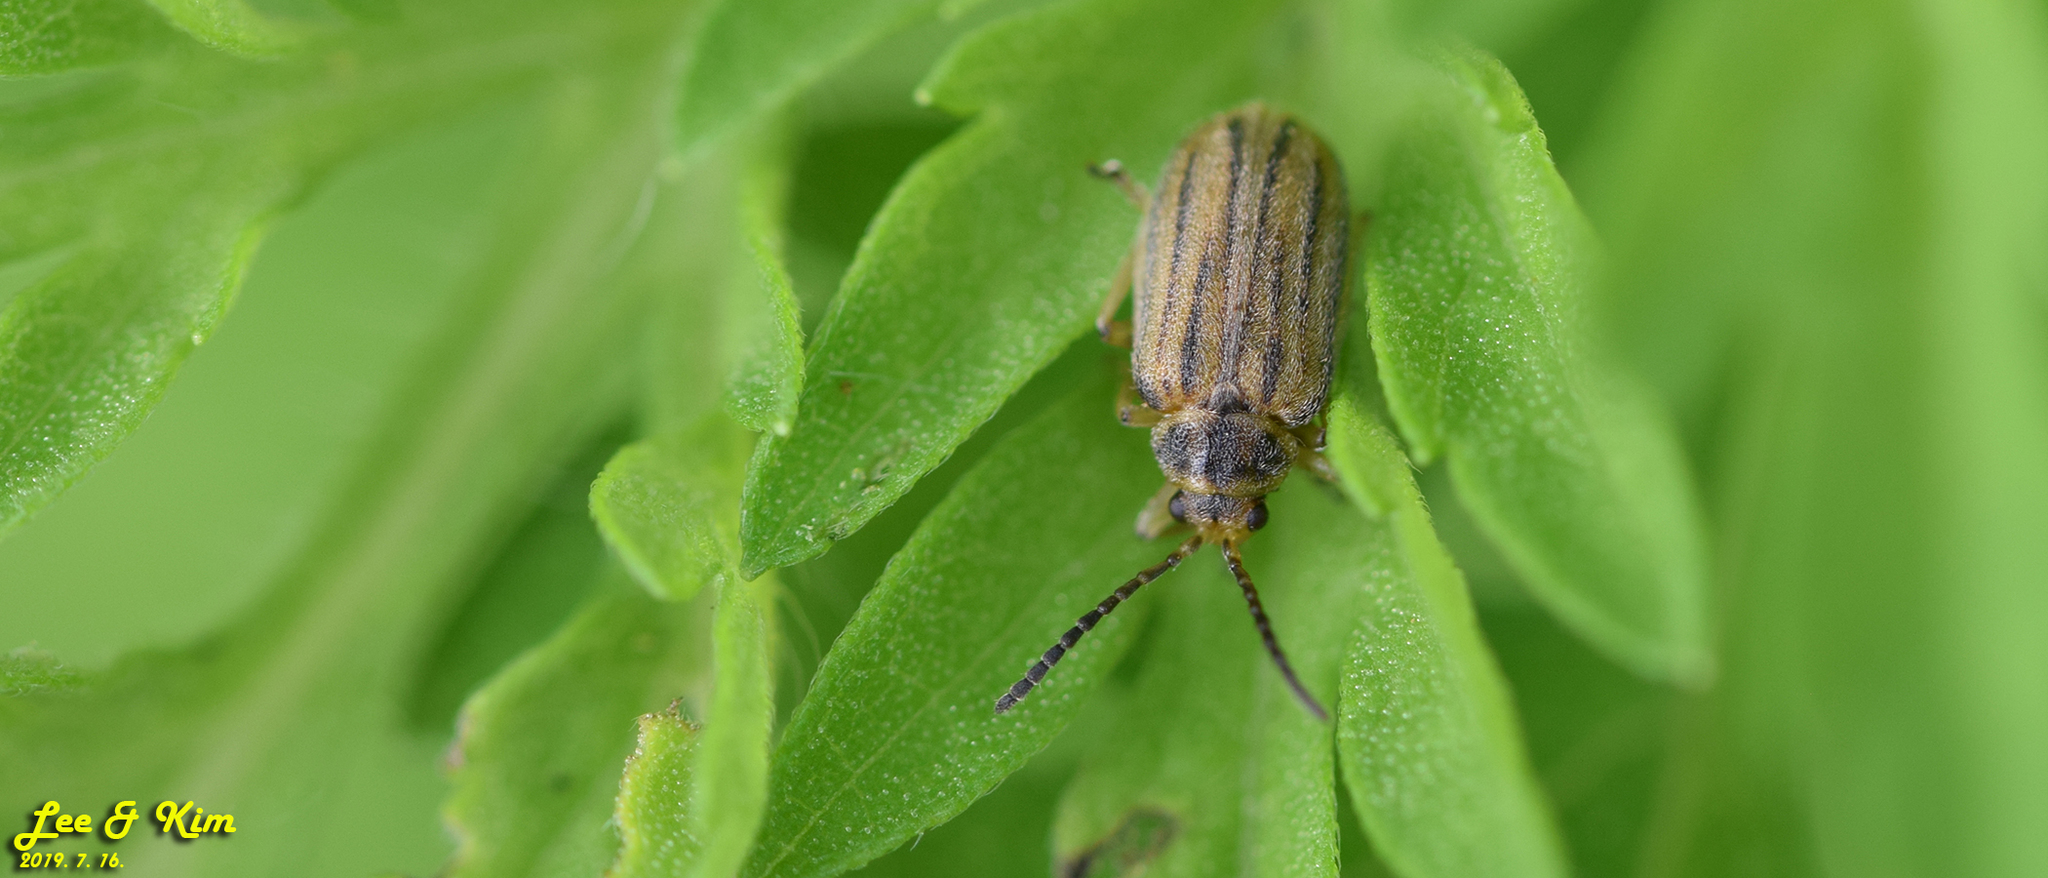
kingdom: Animalia
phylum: Arthropoda
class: Insecta
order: Coleoptera
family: Chrysomelidae
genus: Ophraella
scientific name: Ophraella communa
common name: Ragweed leaf beetle
